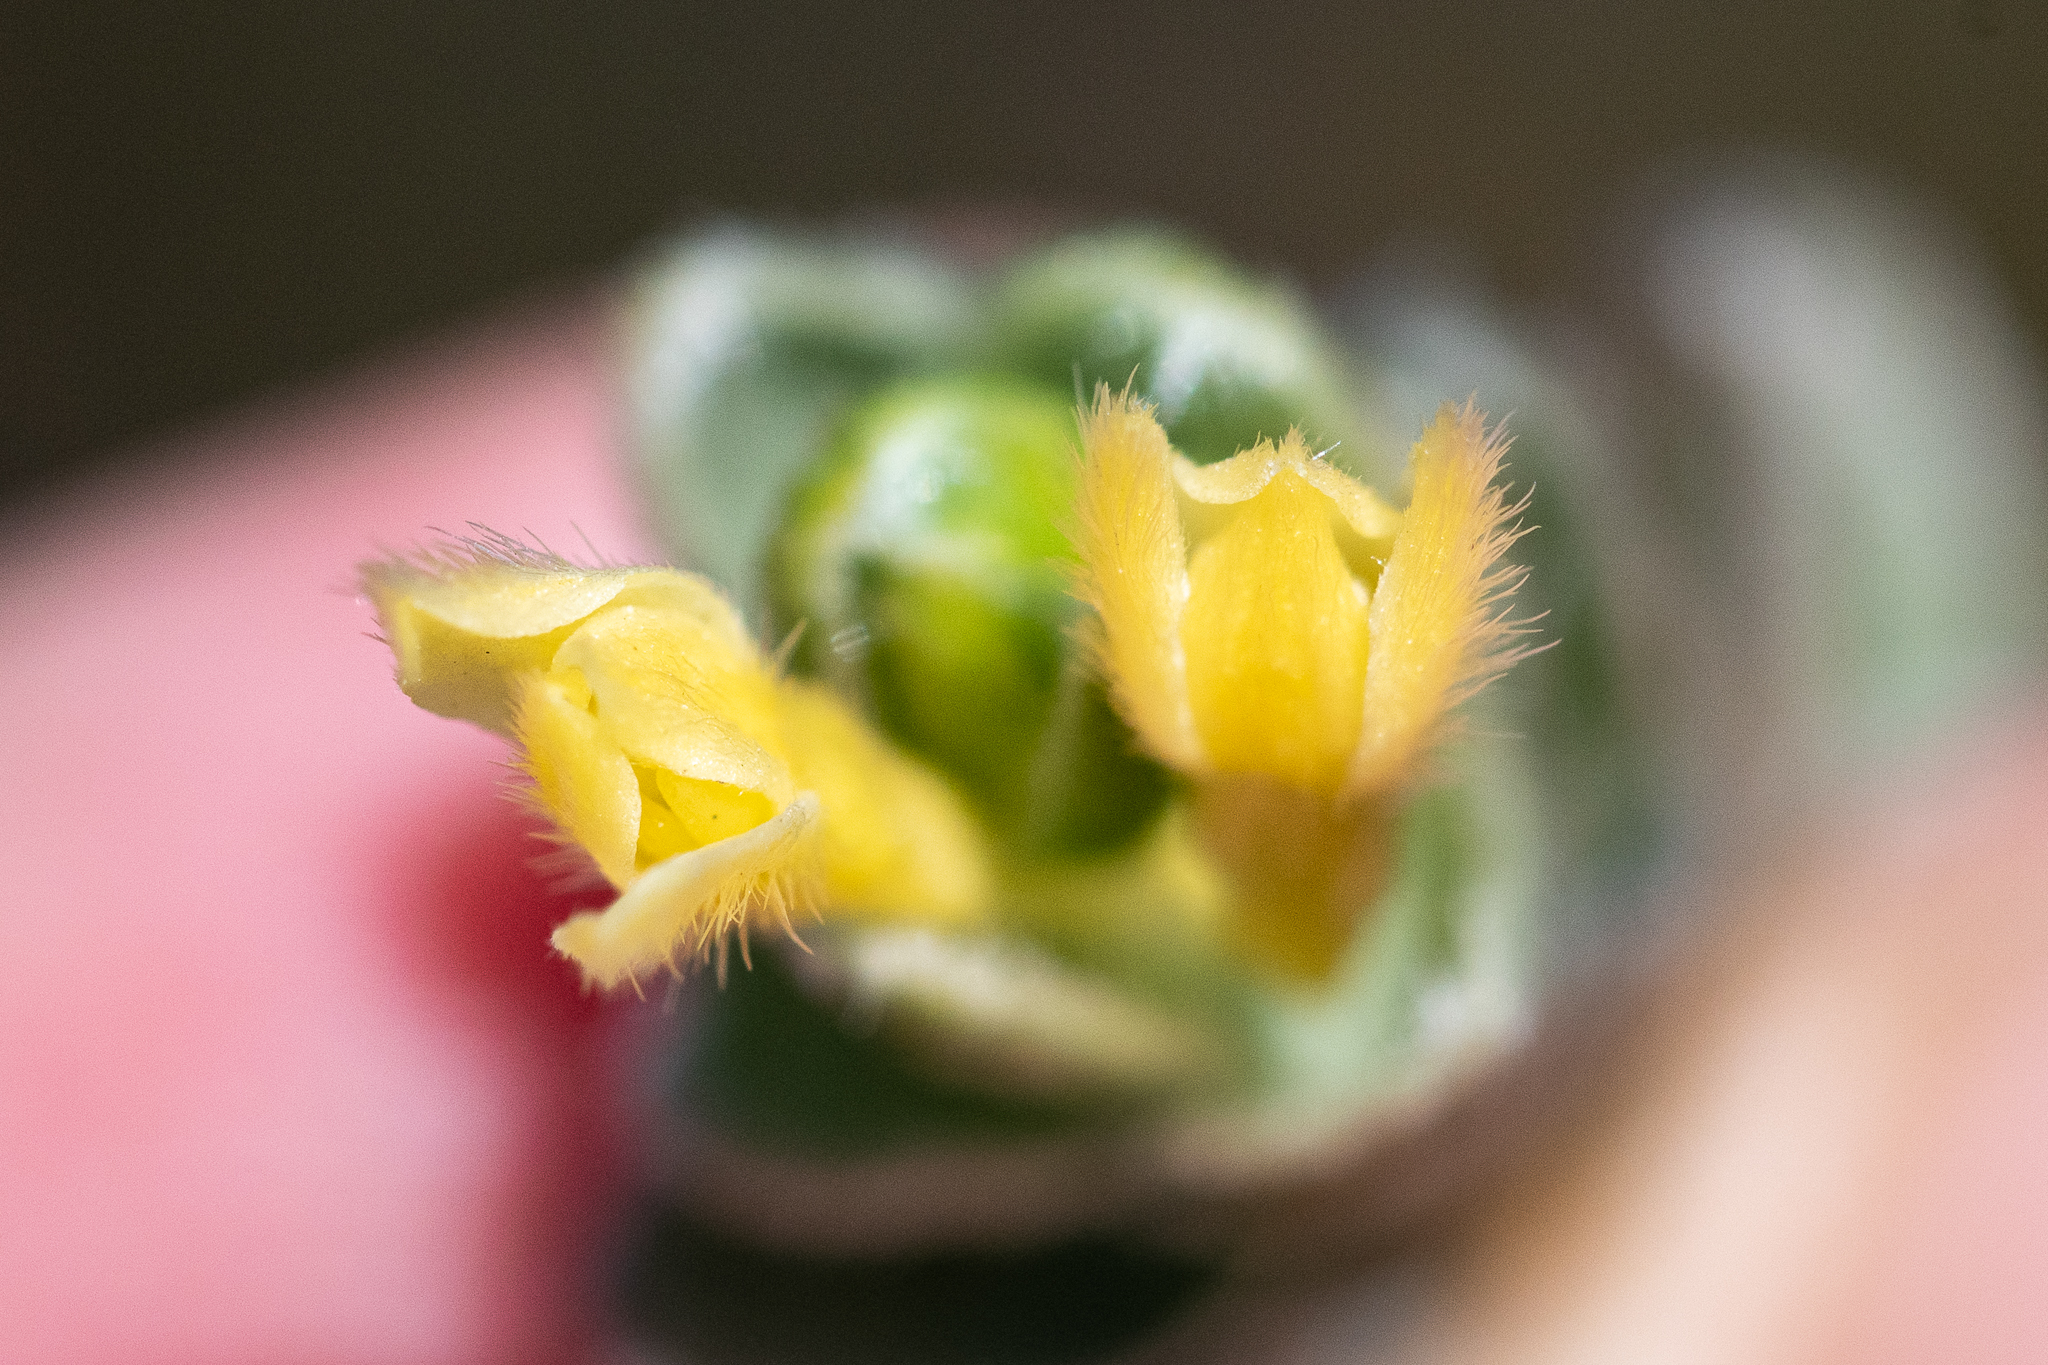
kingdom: Plantae
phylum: Tracheophyta
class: Magnoliopsida
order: Malvales
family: Thymelaeaceae
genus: Gnidia
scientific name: Gnidia anomala
